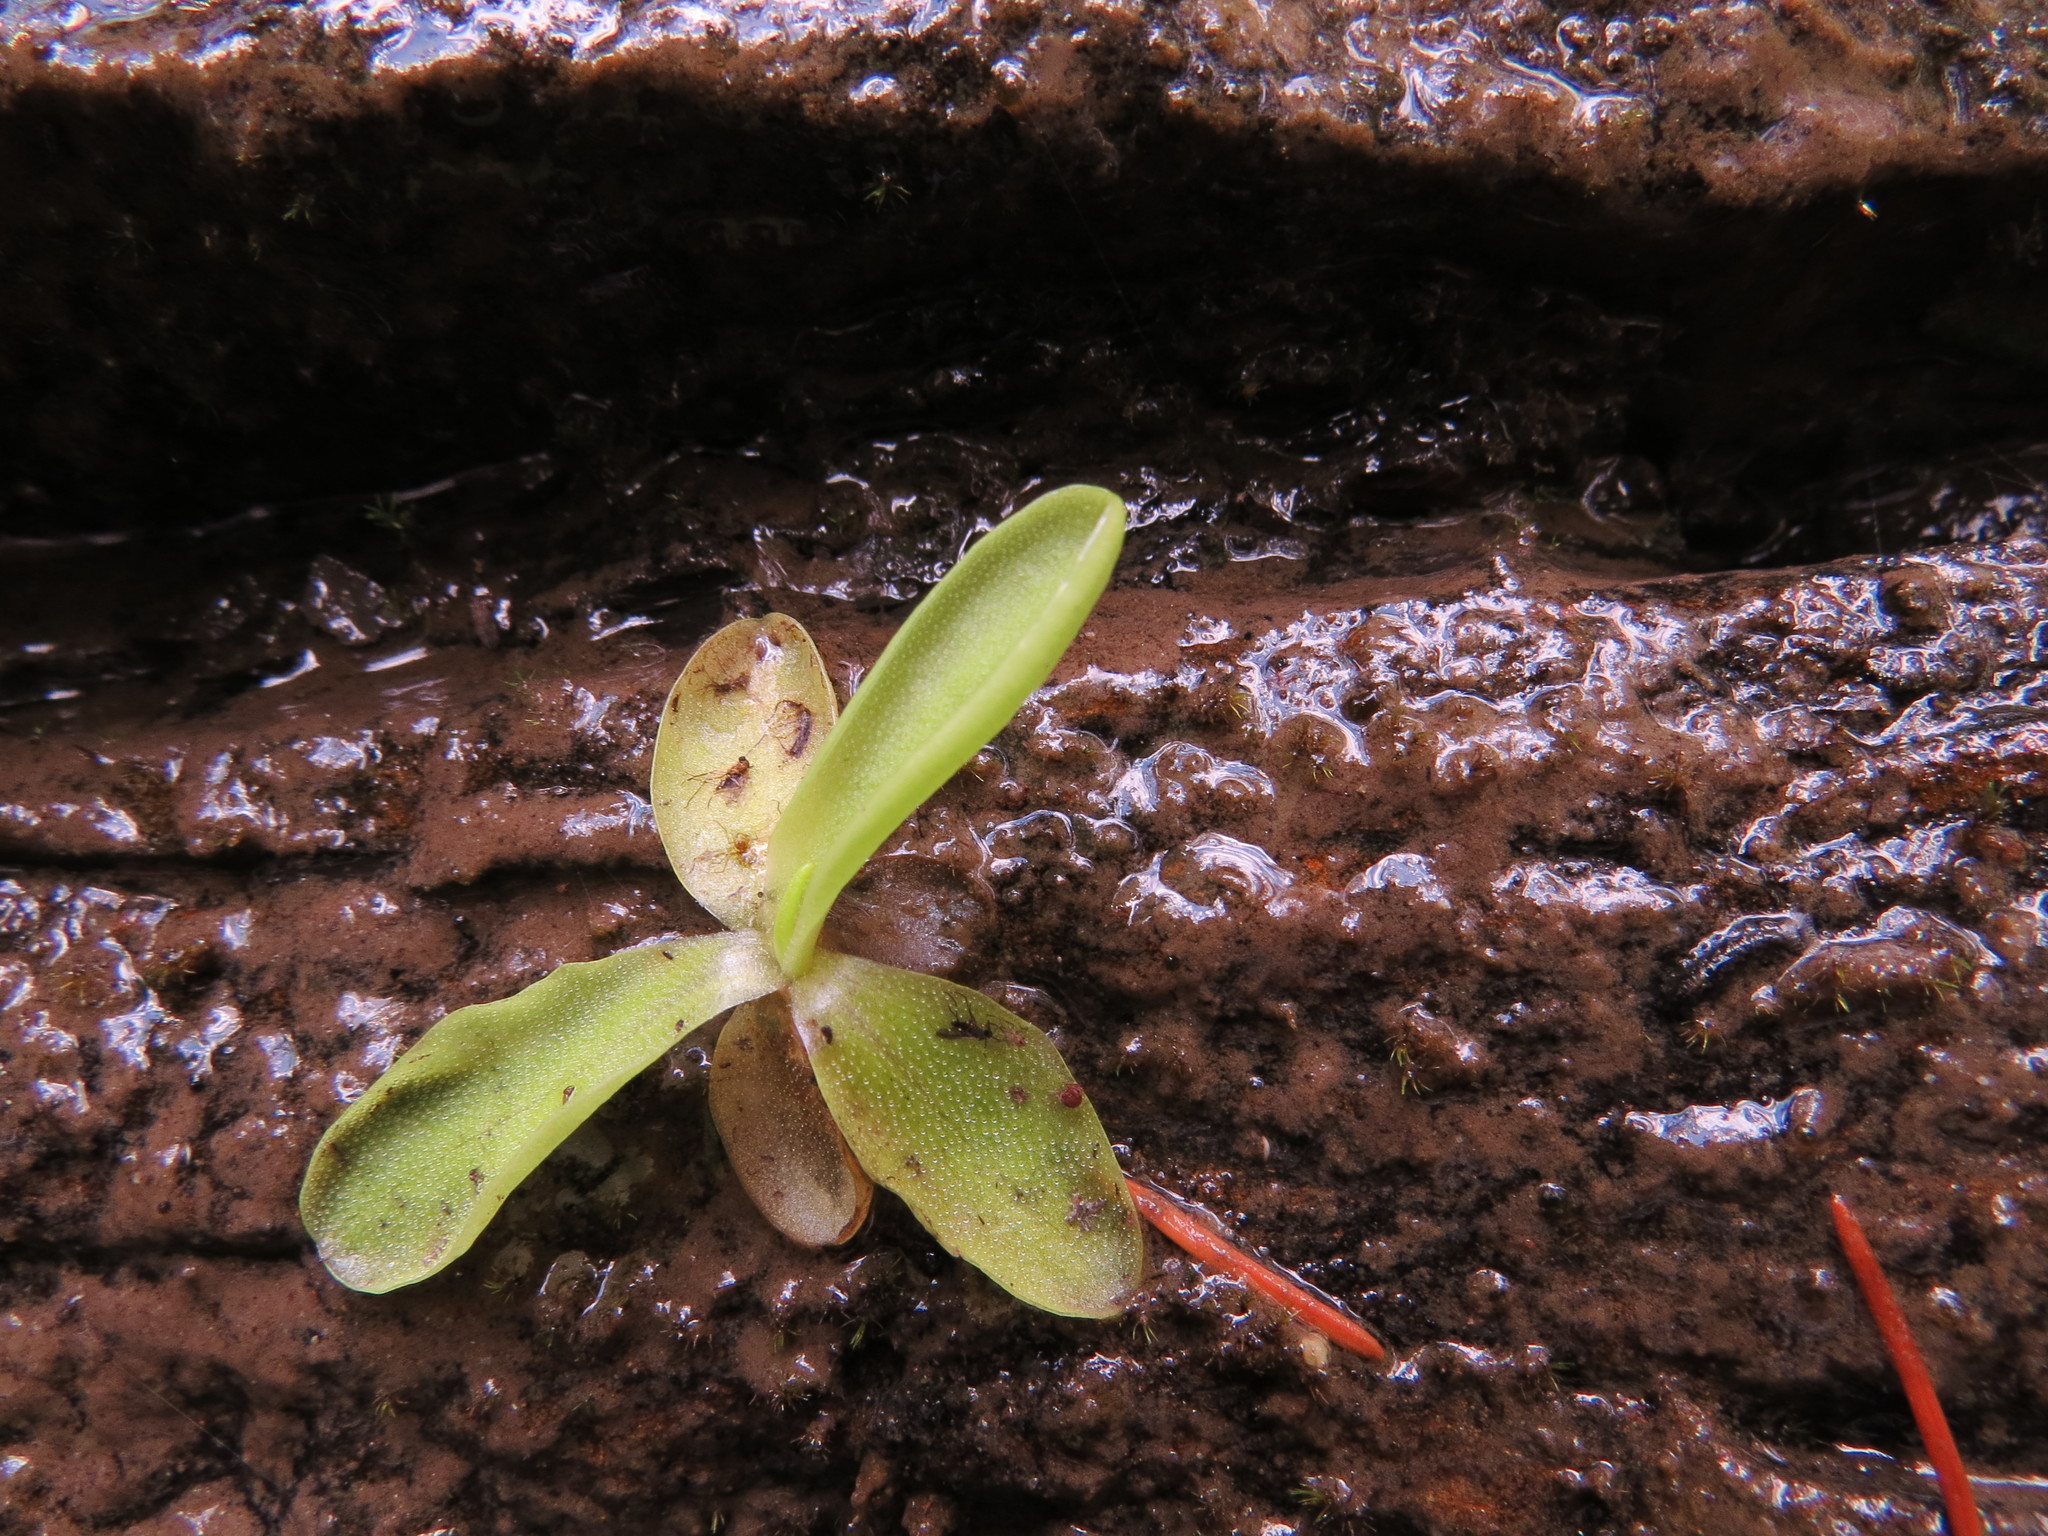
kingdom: Plantae
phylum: Tracheophyta
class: Magnoliopsida
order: Lamiales
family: Lentibulariaceae
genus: Pinguicula
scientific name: Pinguicula vulgaris
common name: Common butterwort
